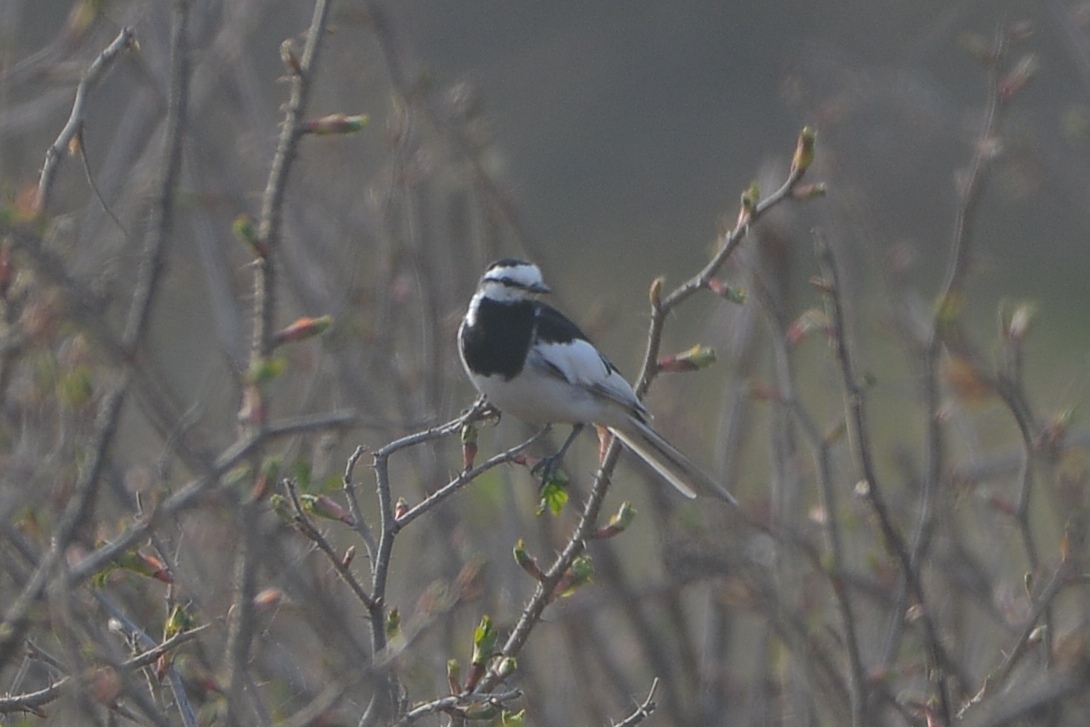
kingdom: Animalia
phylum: Chordata
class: Aves
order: Passeriformes
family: Motacillidae
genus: Motacilla
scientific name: Motacilla alba
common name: White wagtail
